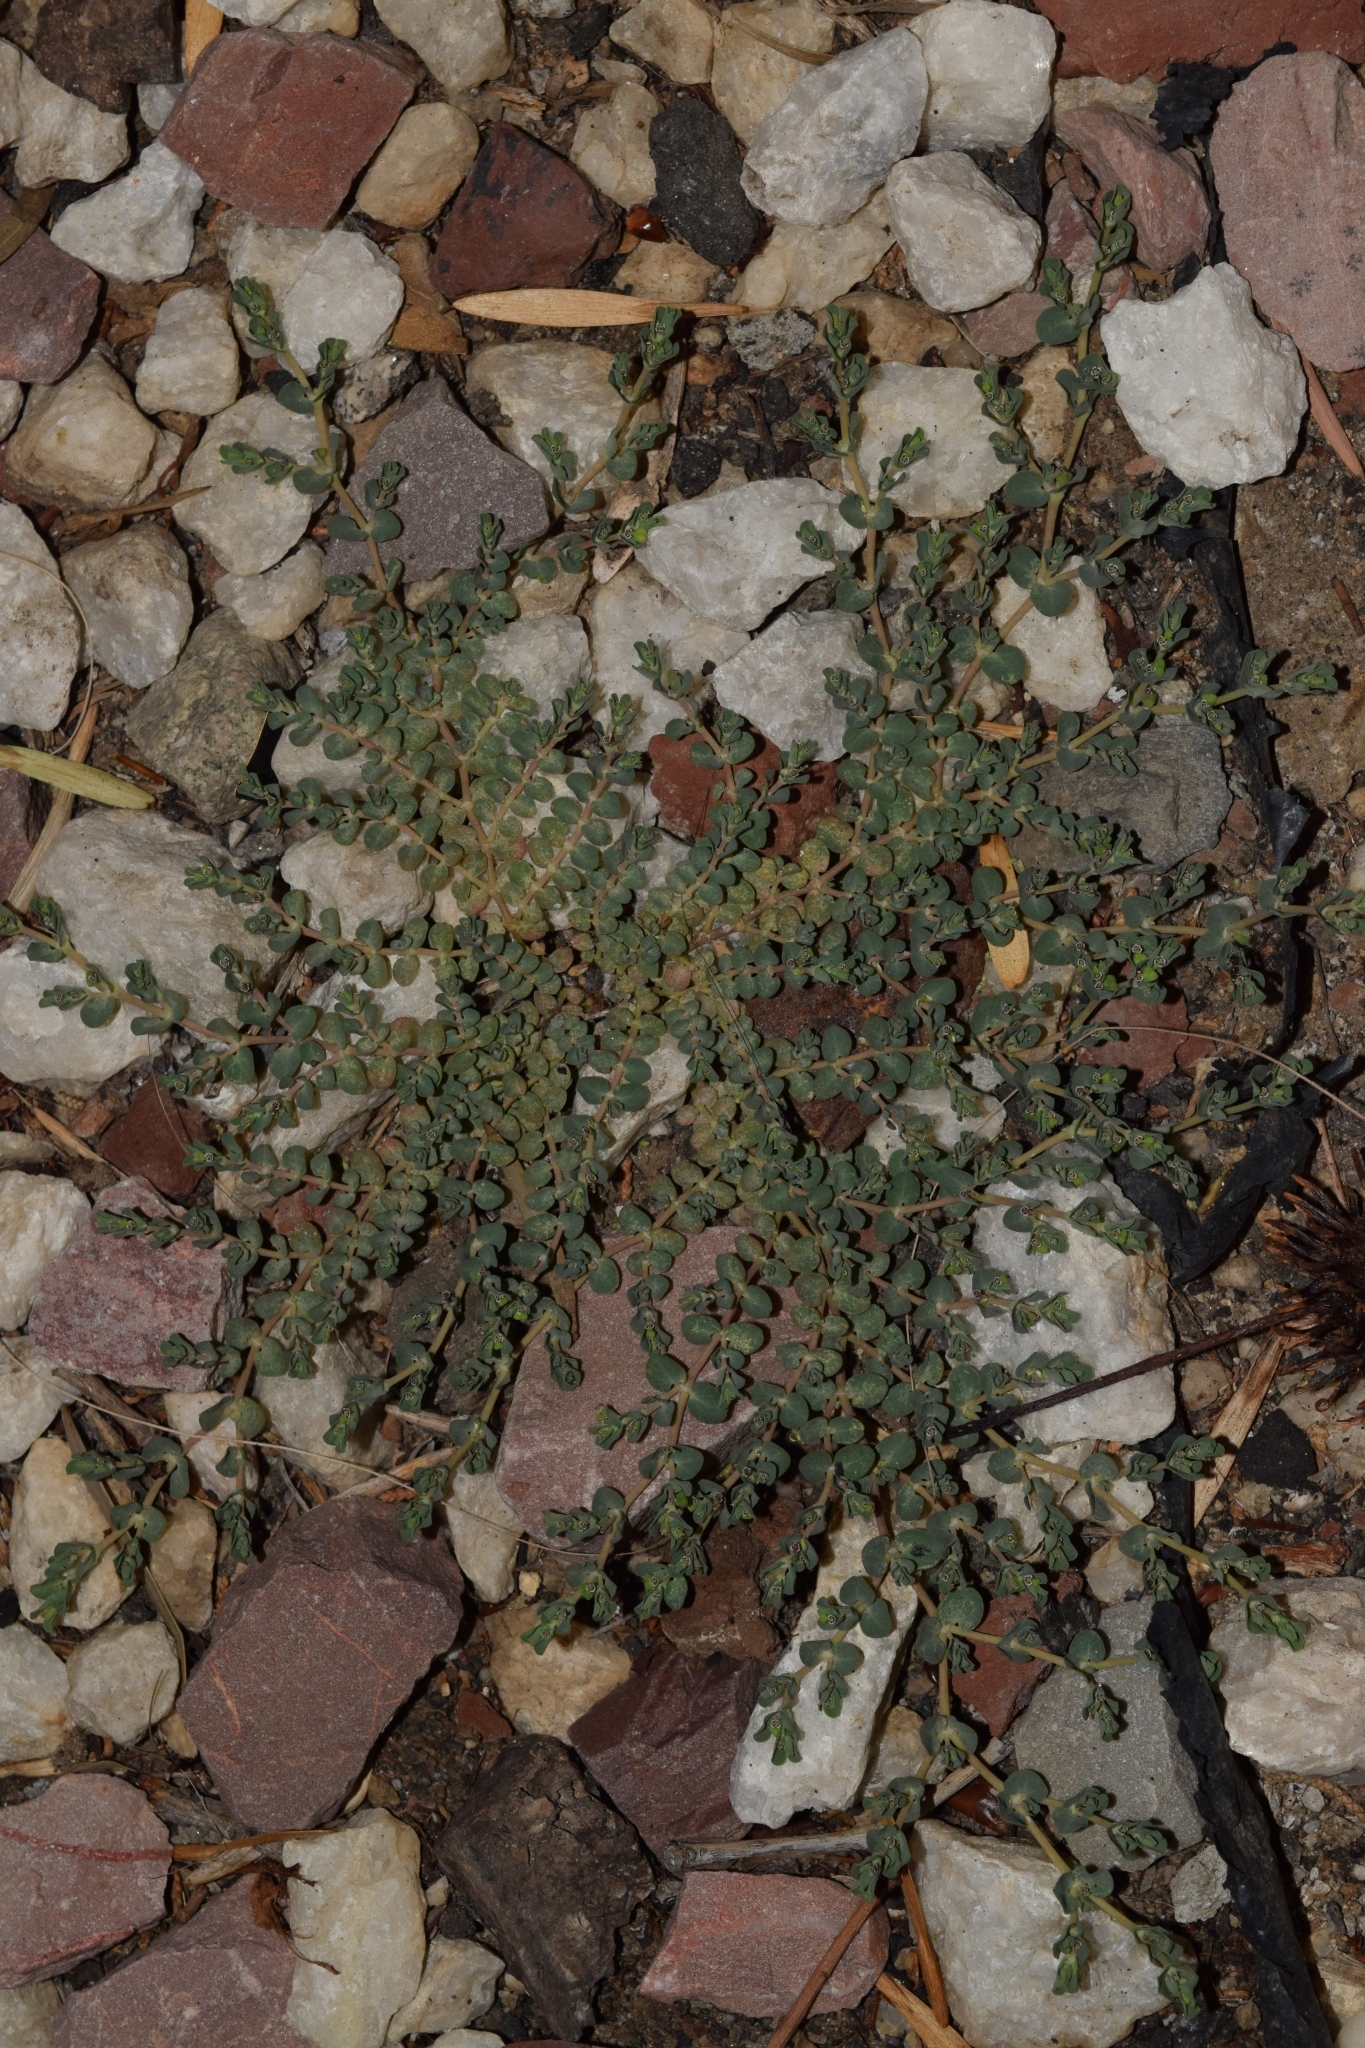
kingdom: Plantae
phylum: Tracheophyta
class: Magnoliopsida
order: Malpighiales
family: Euphorbiaceae
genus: Euphorbia
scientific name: Euphorbia serpens
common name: Matted sandmat
